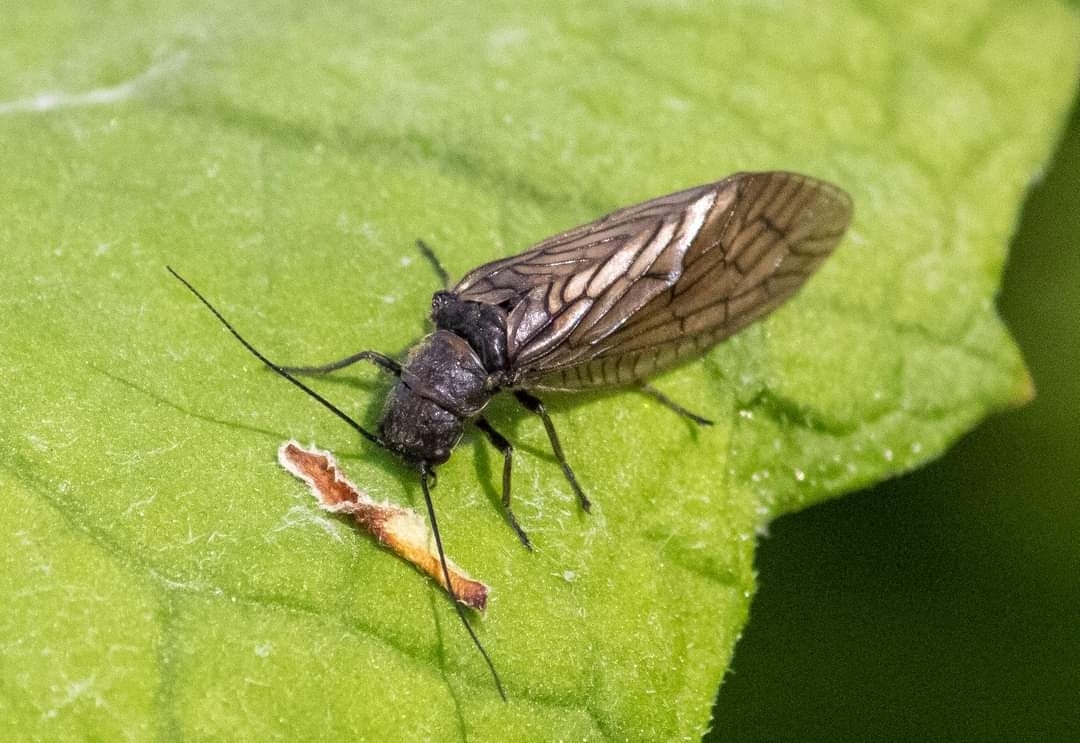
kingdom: Animalia
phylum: Arthropoda
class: Insecta
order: Megaloptera
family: Sialidae
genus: Sialis
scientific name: Sialis
